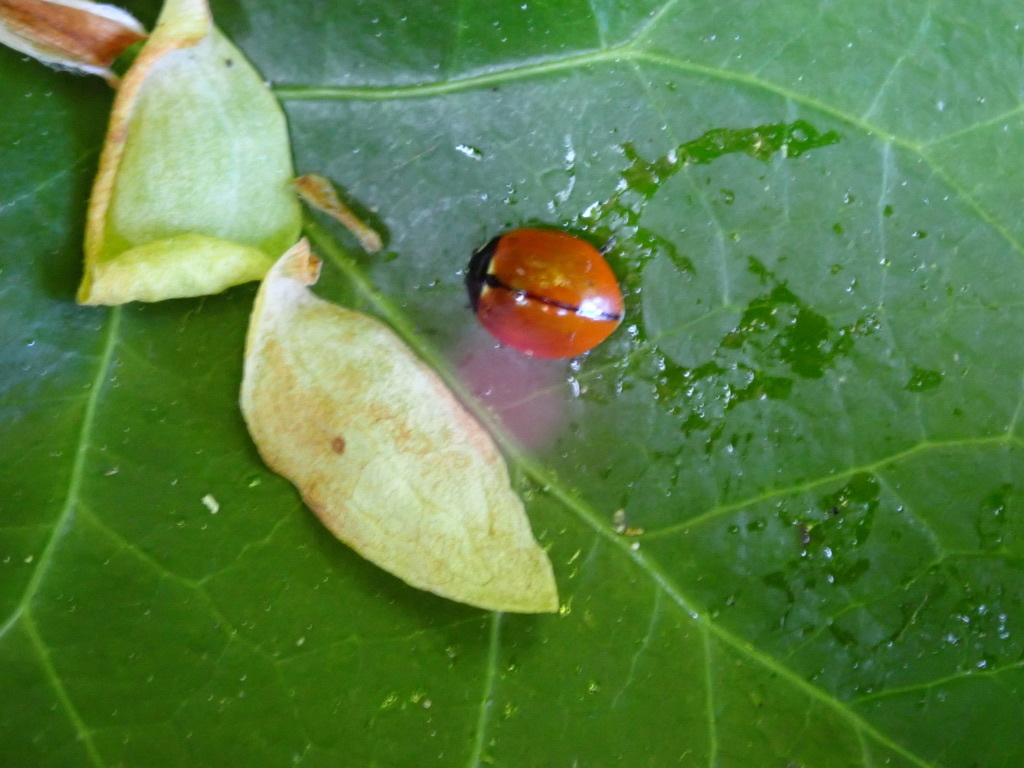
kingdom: Animalia
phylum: Arthropoda
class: Insecta
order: Coleoptera
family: Coccinellidae
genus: Coccinella
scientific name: Coccinella californica
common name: Lady beetle
